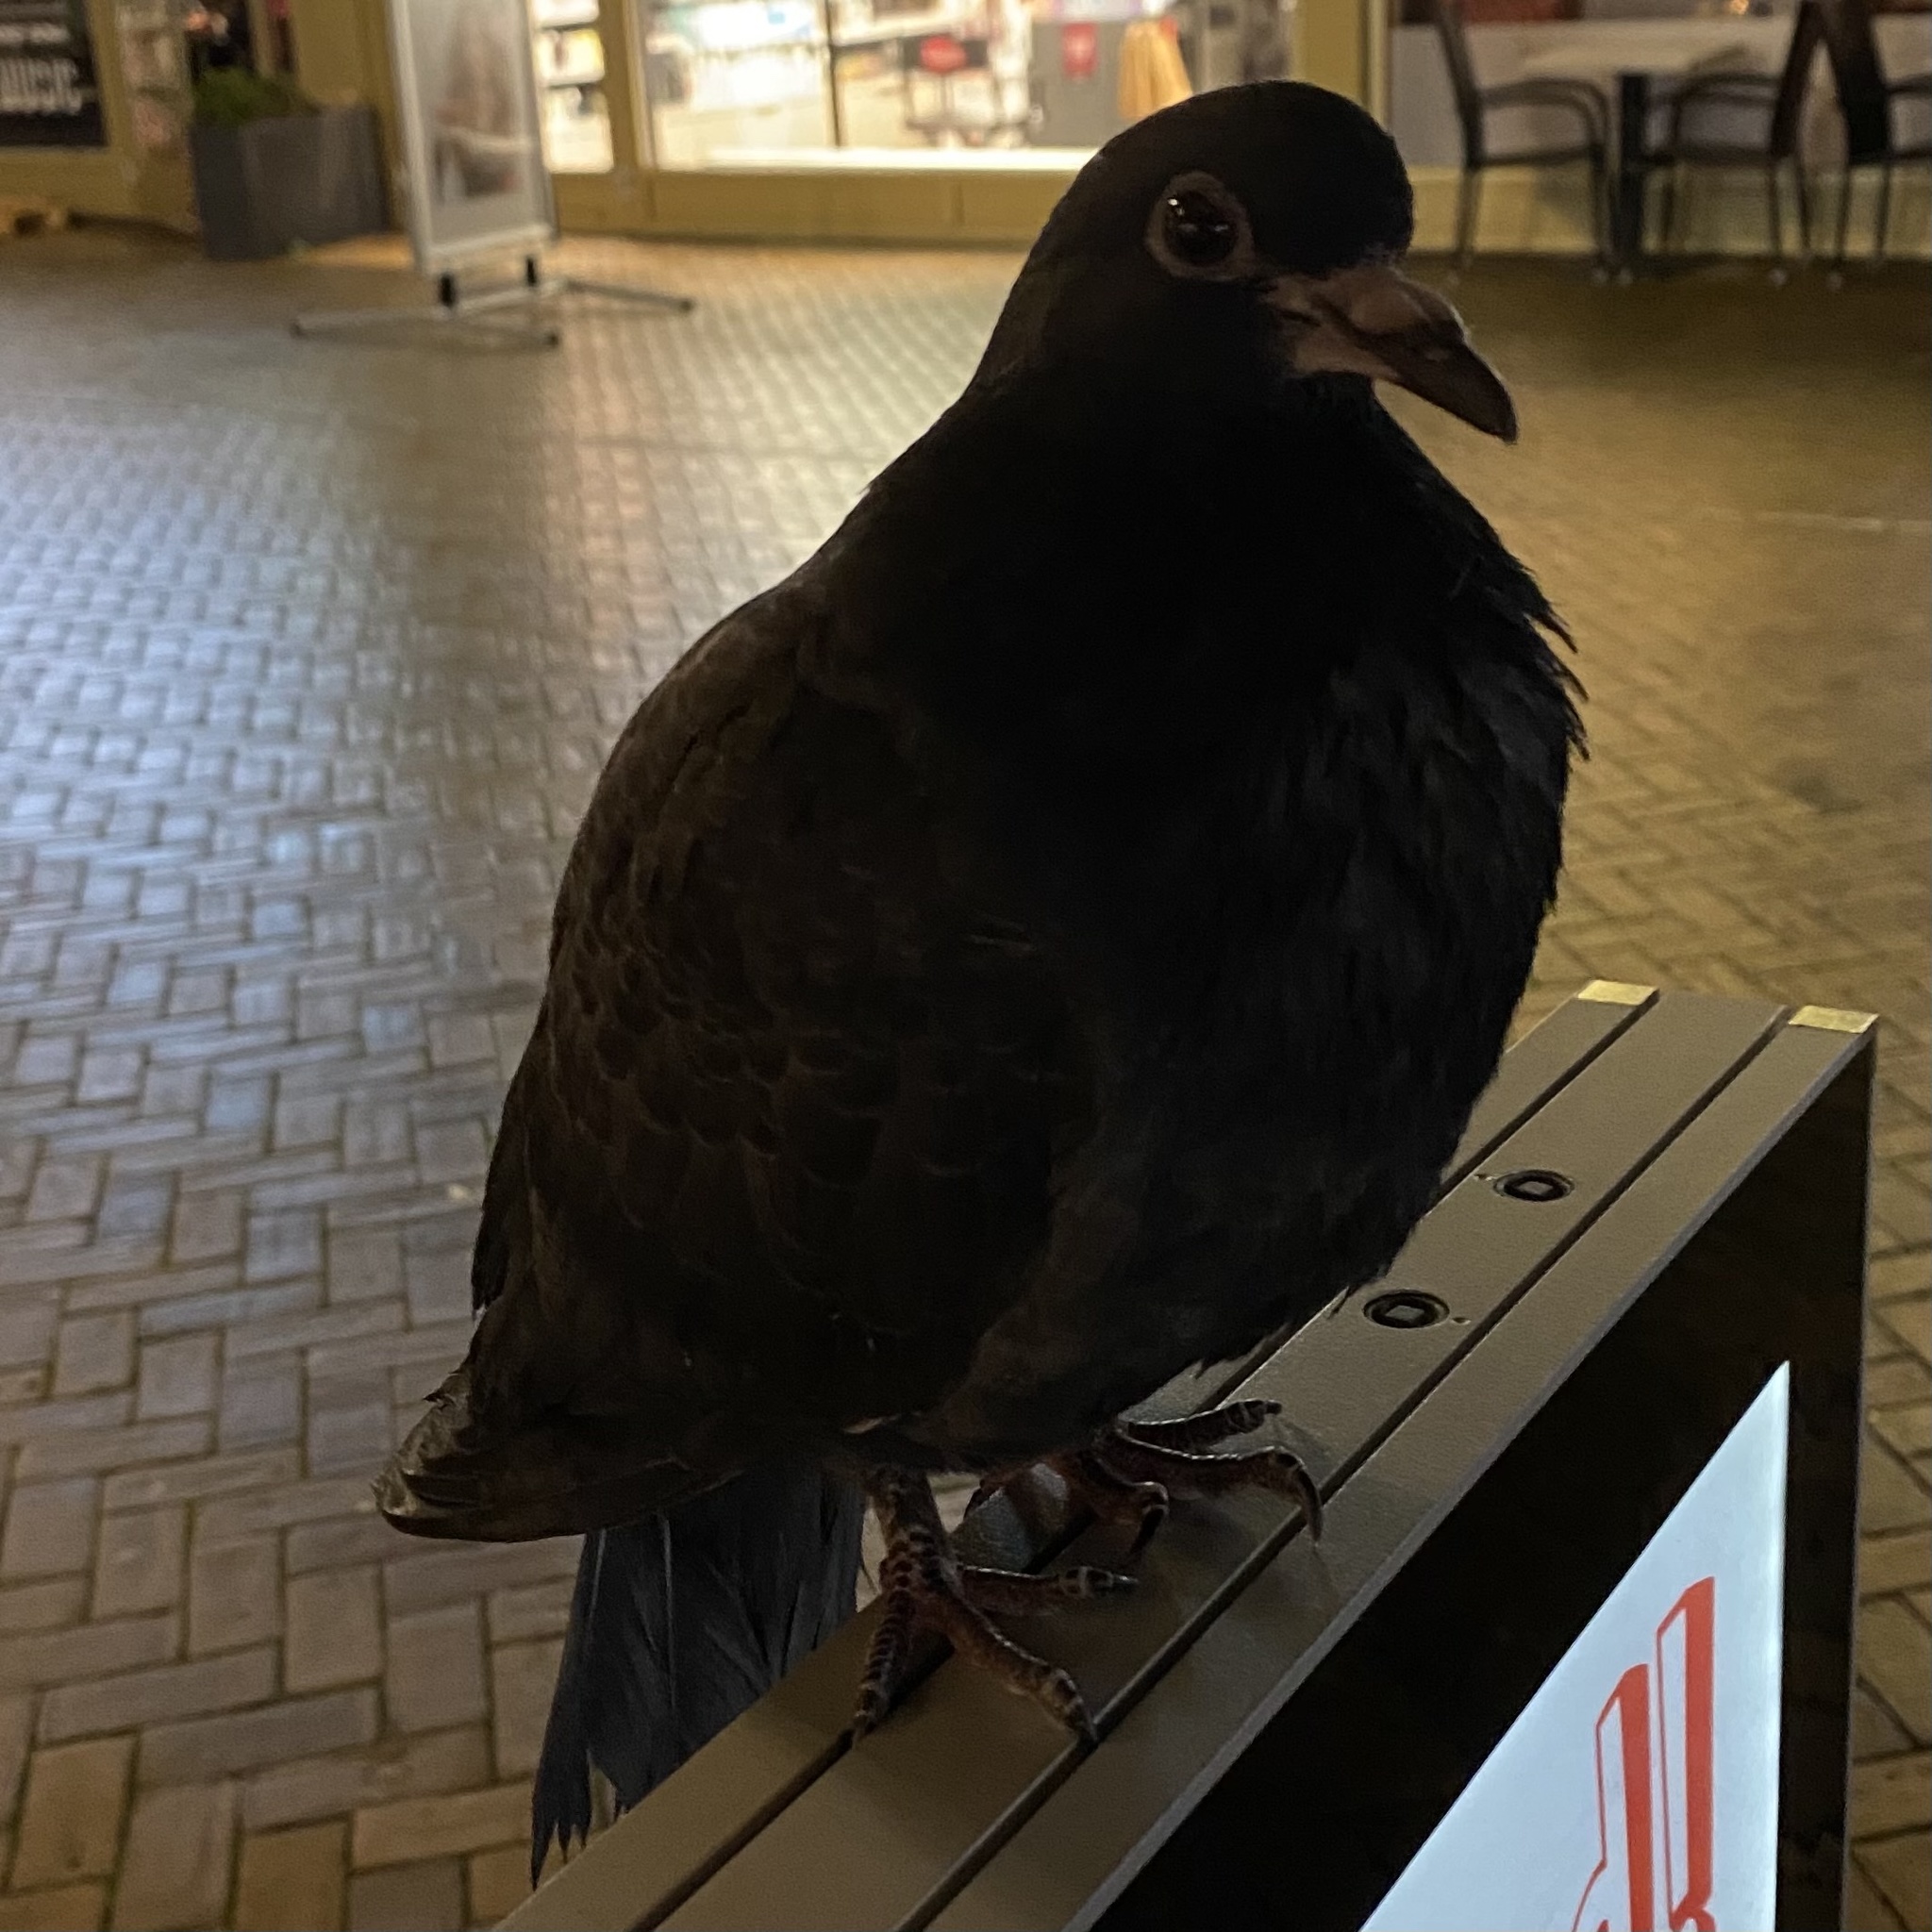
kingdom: Animalia
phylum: Chordata
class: Aves
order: Columbiformes
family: Columbidae
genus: Columba
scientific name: Columba livia
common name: Rock pigeon
